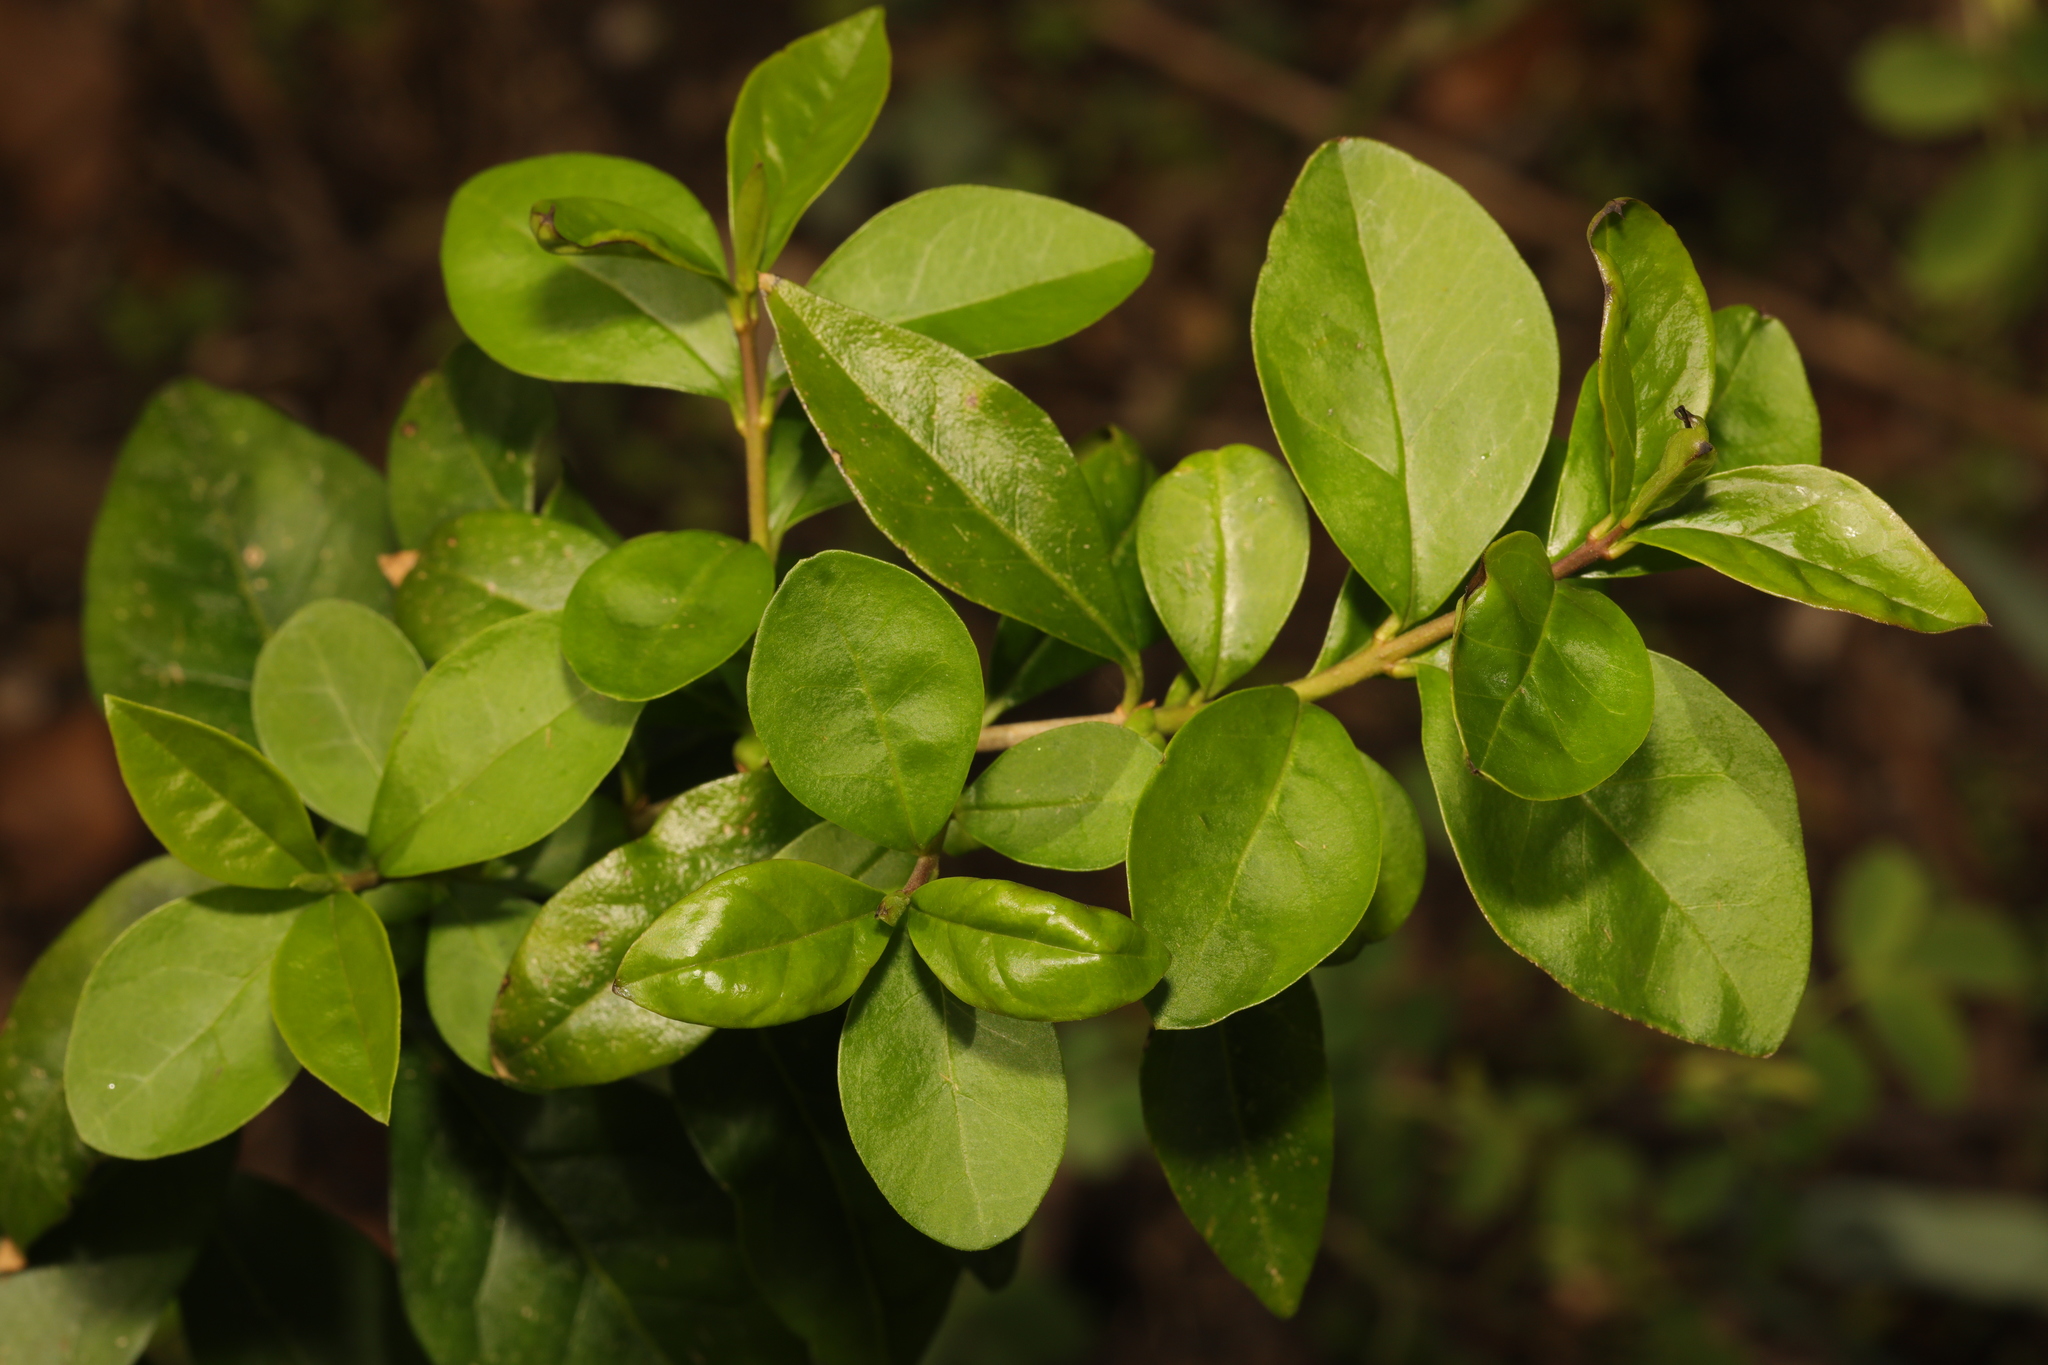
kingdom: Plantae
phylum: Tracheophyta
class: Magnoliopsida
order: Lamiales
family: Oleaceae
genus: Ligustrum
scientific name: Ligustrum ovalifolium
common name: California privet
